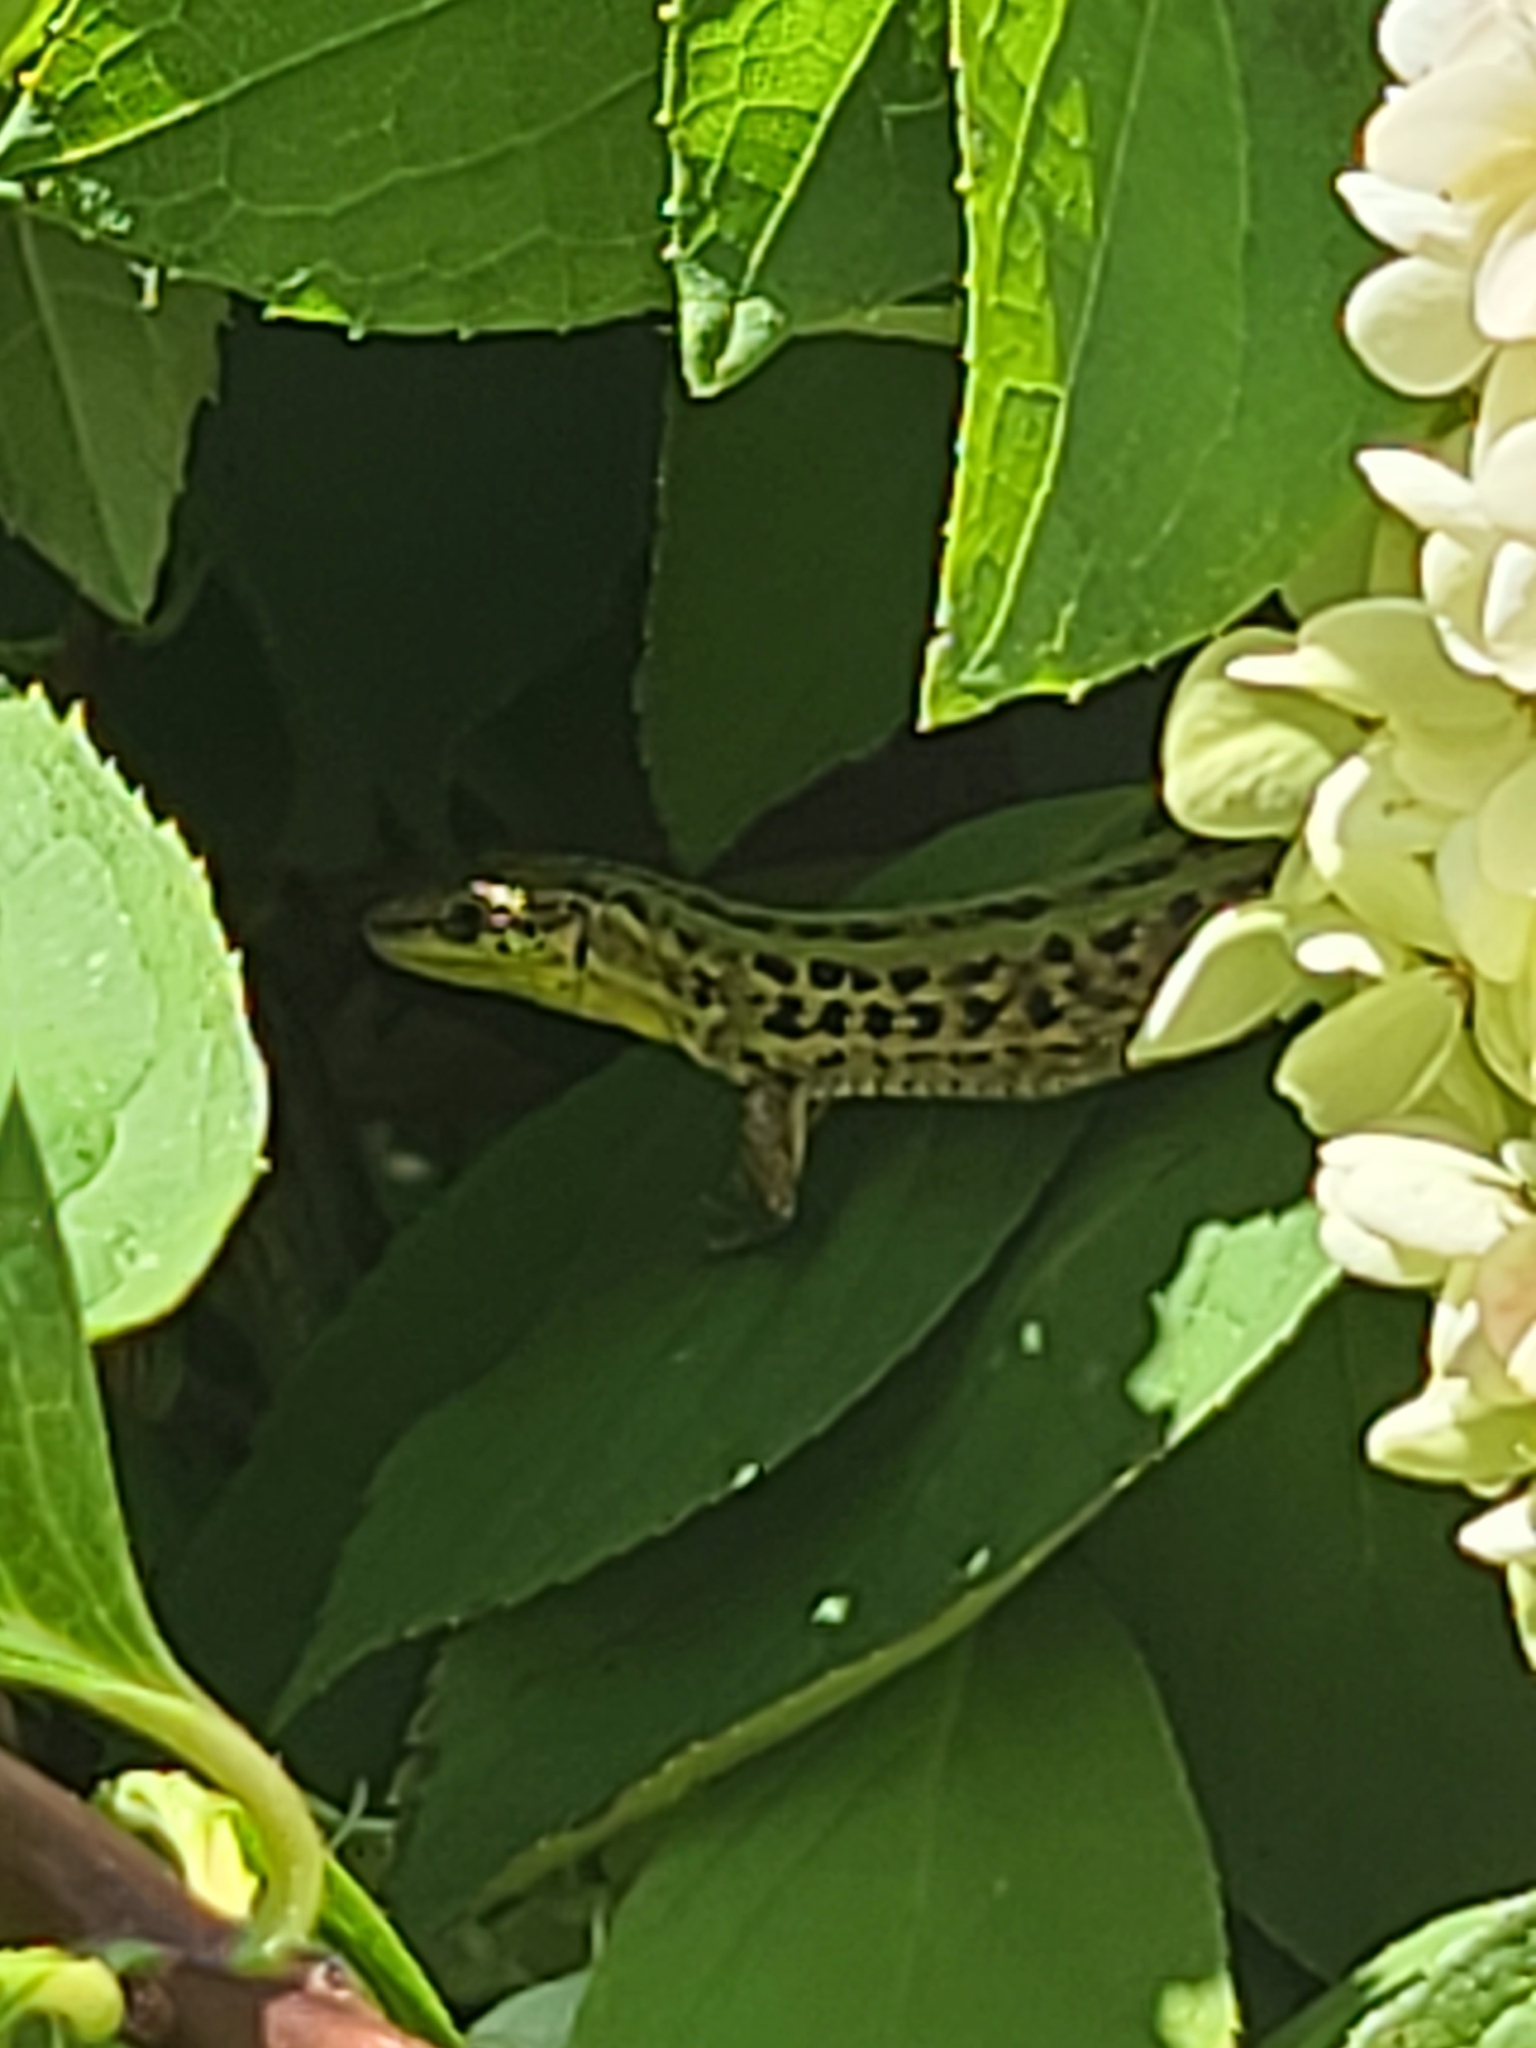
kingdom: Animalia
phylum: Chordata
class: Squamata
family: Lacertidae
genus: Podarcis
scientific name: Podarcis siculus
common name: Italian wall lizard
